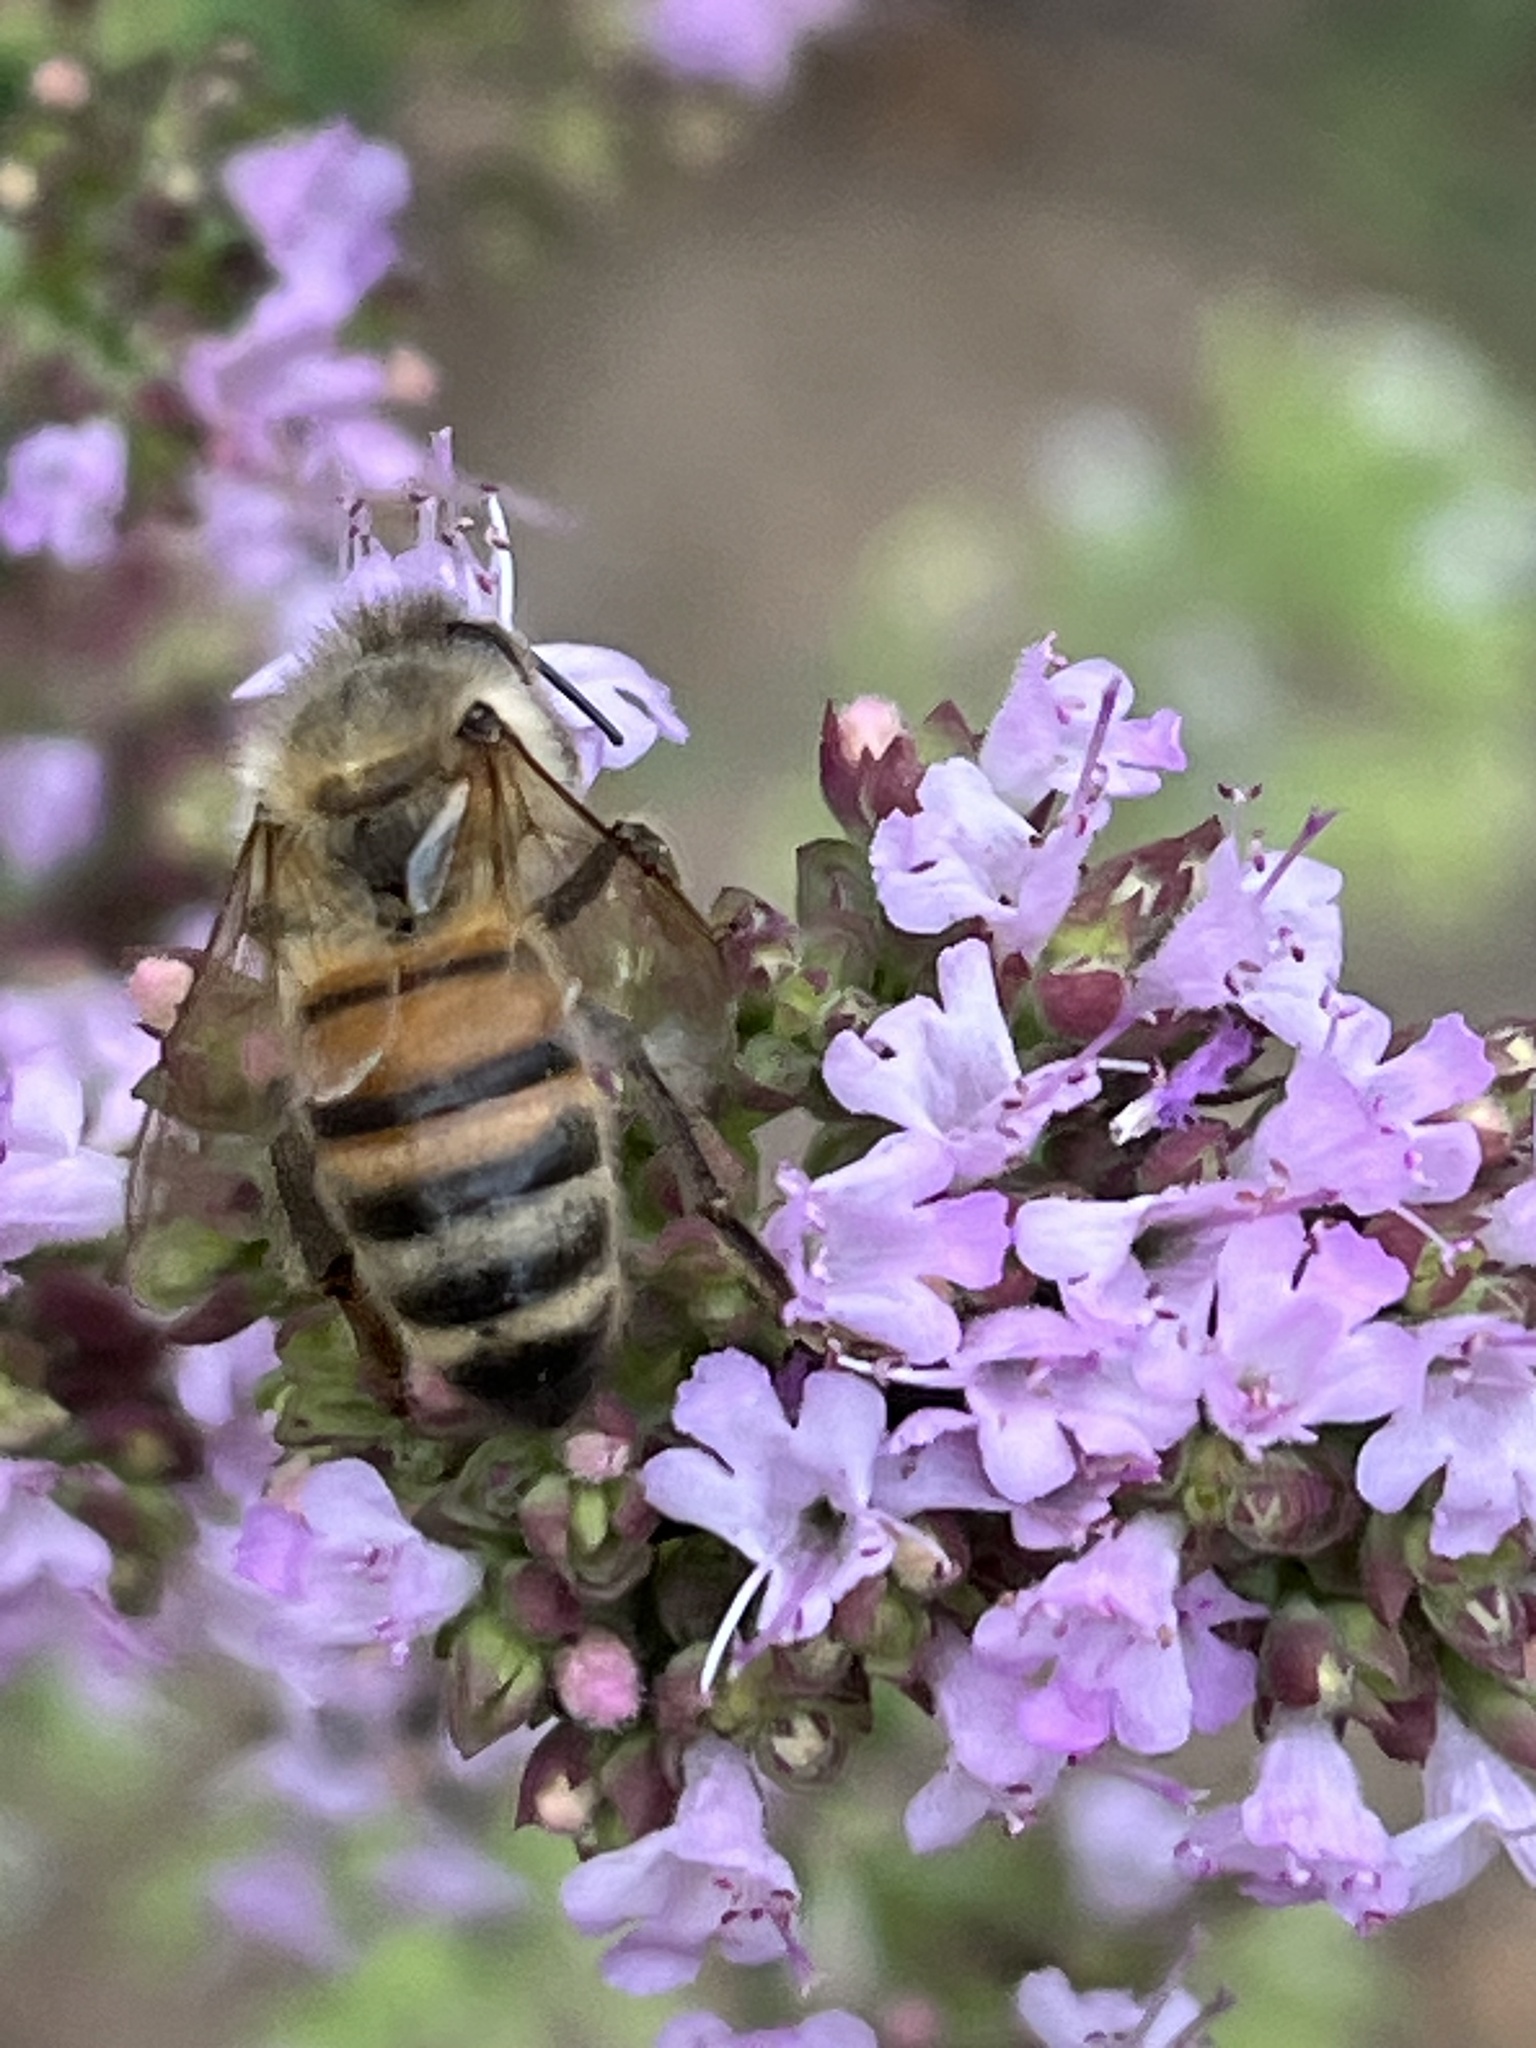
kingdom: Animalia
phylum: Arthropoda
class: Insecta
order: Hymenoptera
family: Apidae
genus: Apis
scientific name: Apis mellifera
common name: Honey bee
